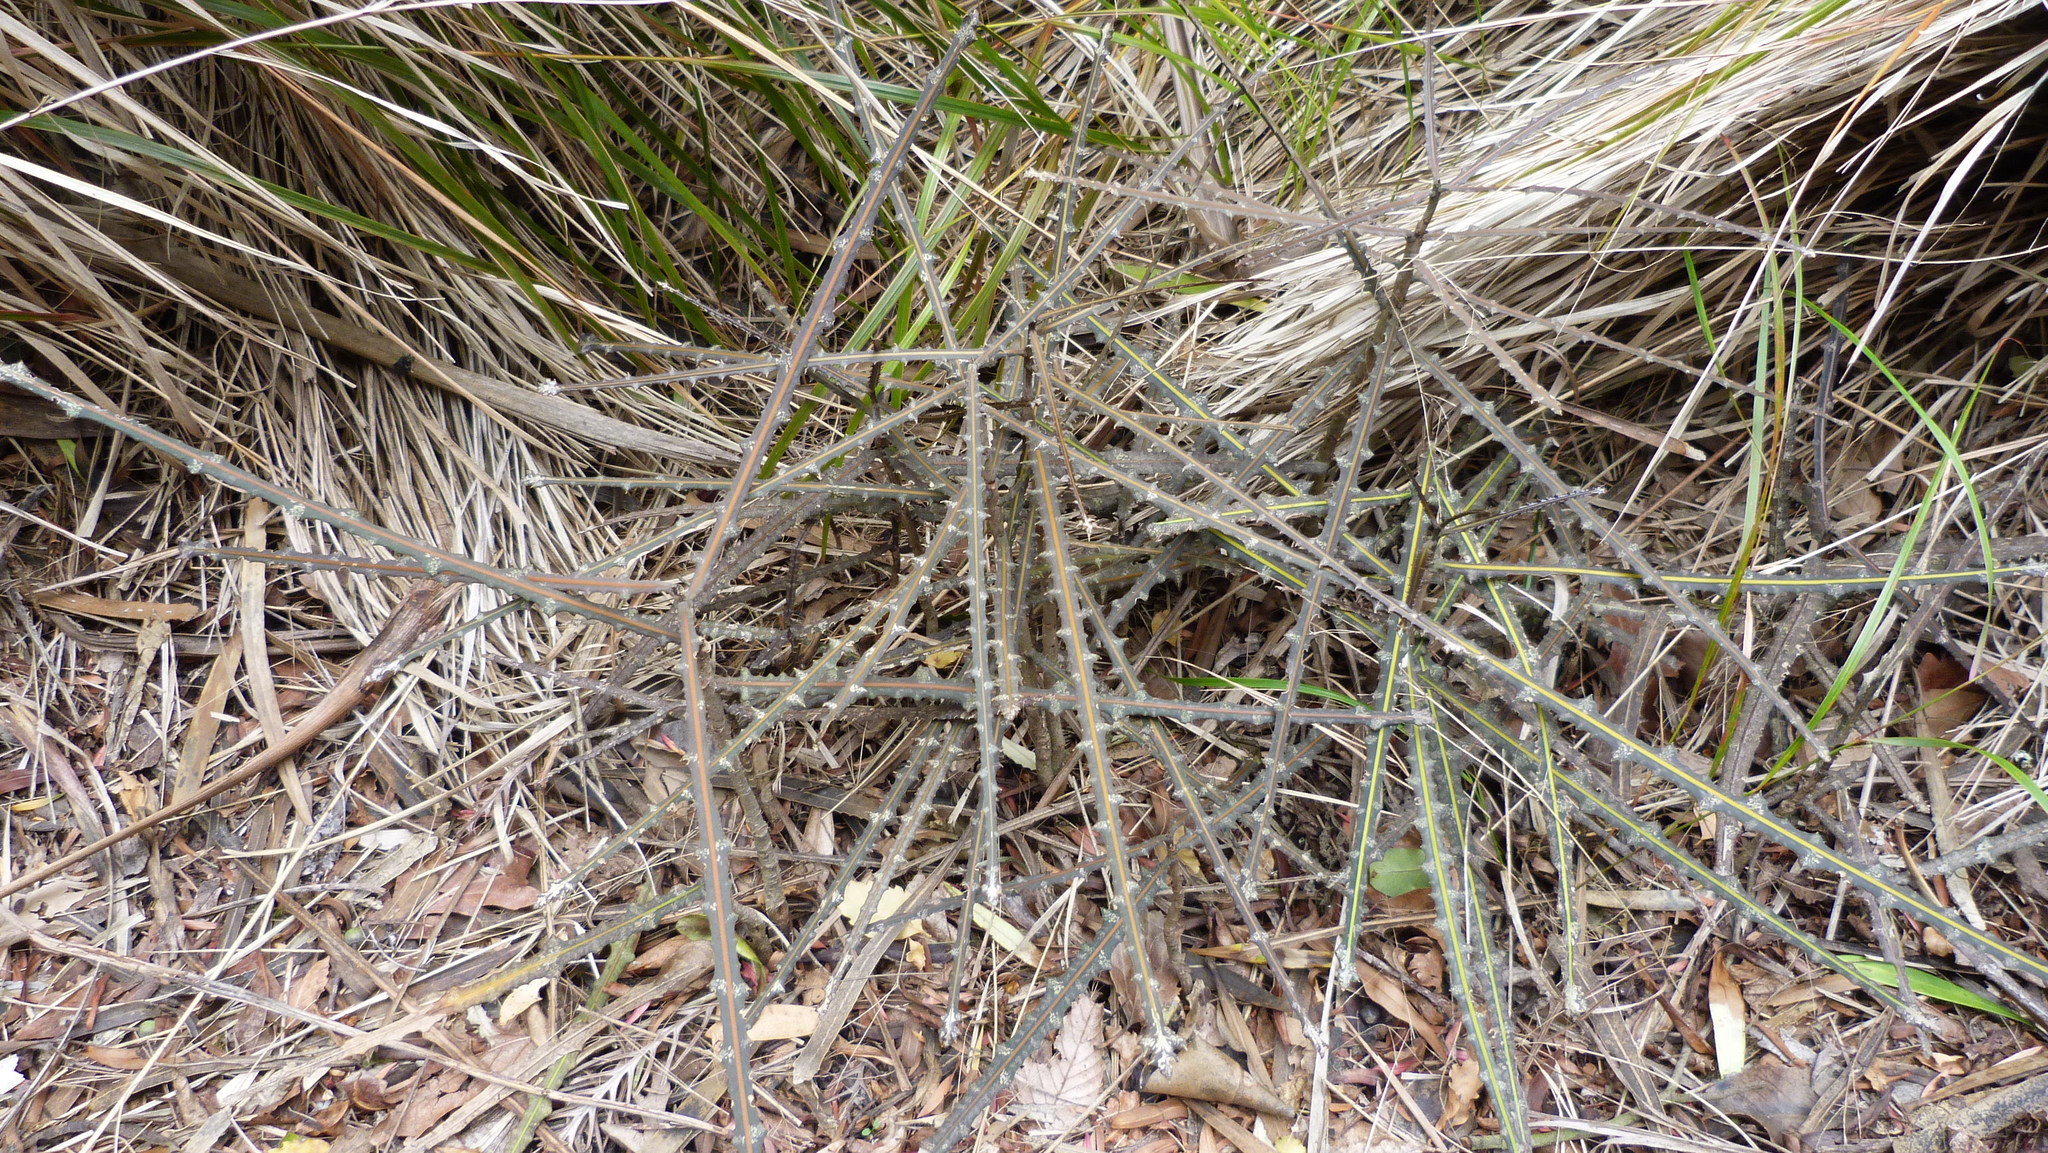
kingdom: Plantae
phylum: Tracheophyta
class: Magnoliopsida
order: Apiales
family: Araliaceae
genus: Pseudopanax
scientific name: Pseudopanax ferox
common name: Fierce lancewood
